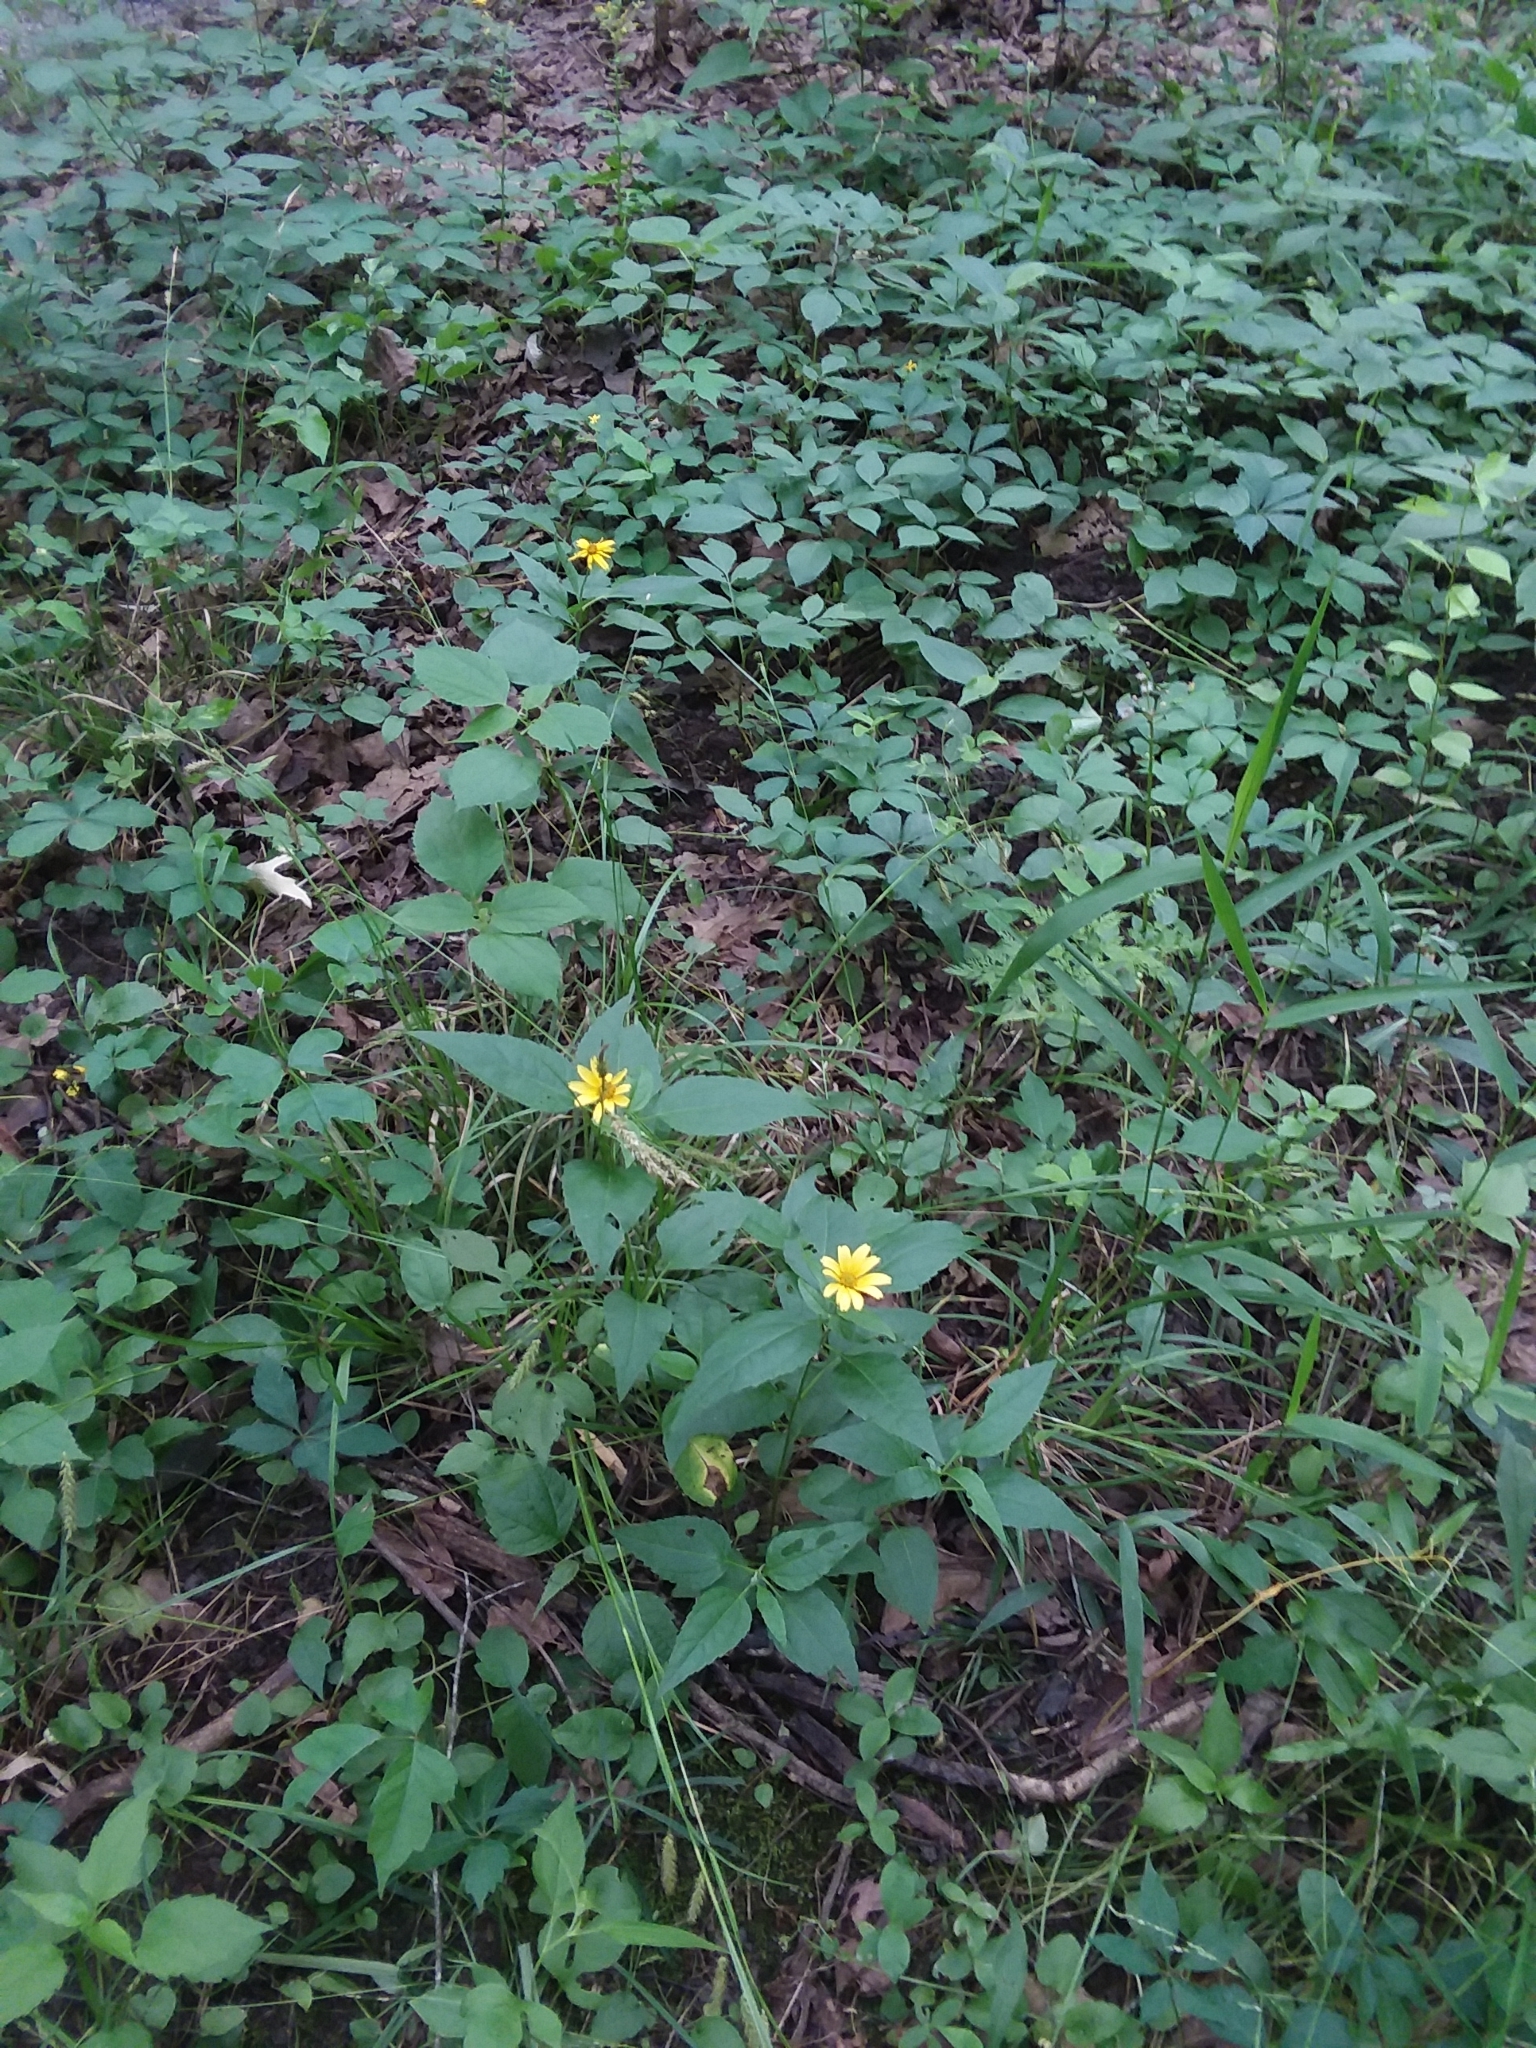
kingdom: Plantae
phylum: Tracheophyta
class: Magnoliopsida
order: Asterales
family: Asteraceae
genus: Heliopsis
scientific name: Heliopsis helianthoides
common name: False sunflower
